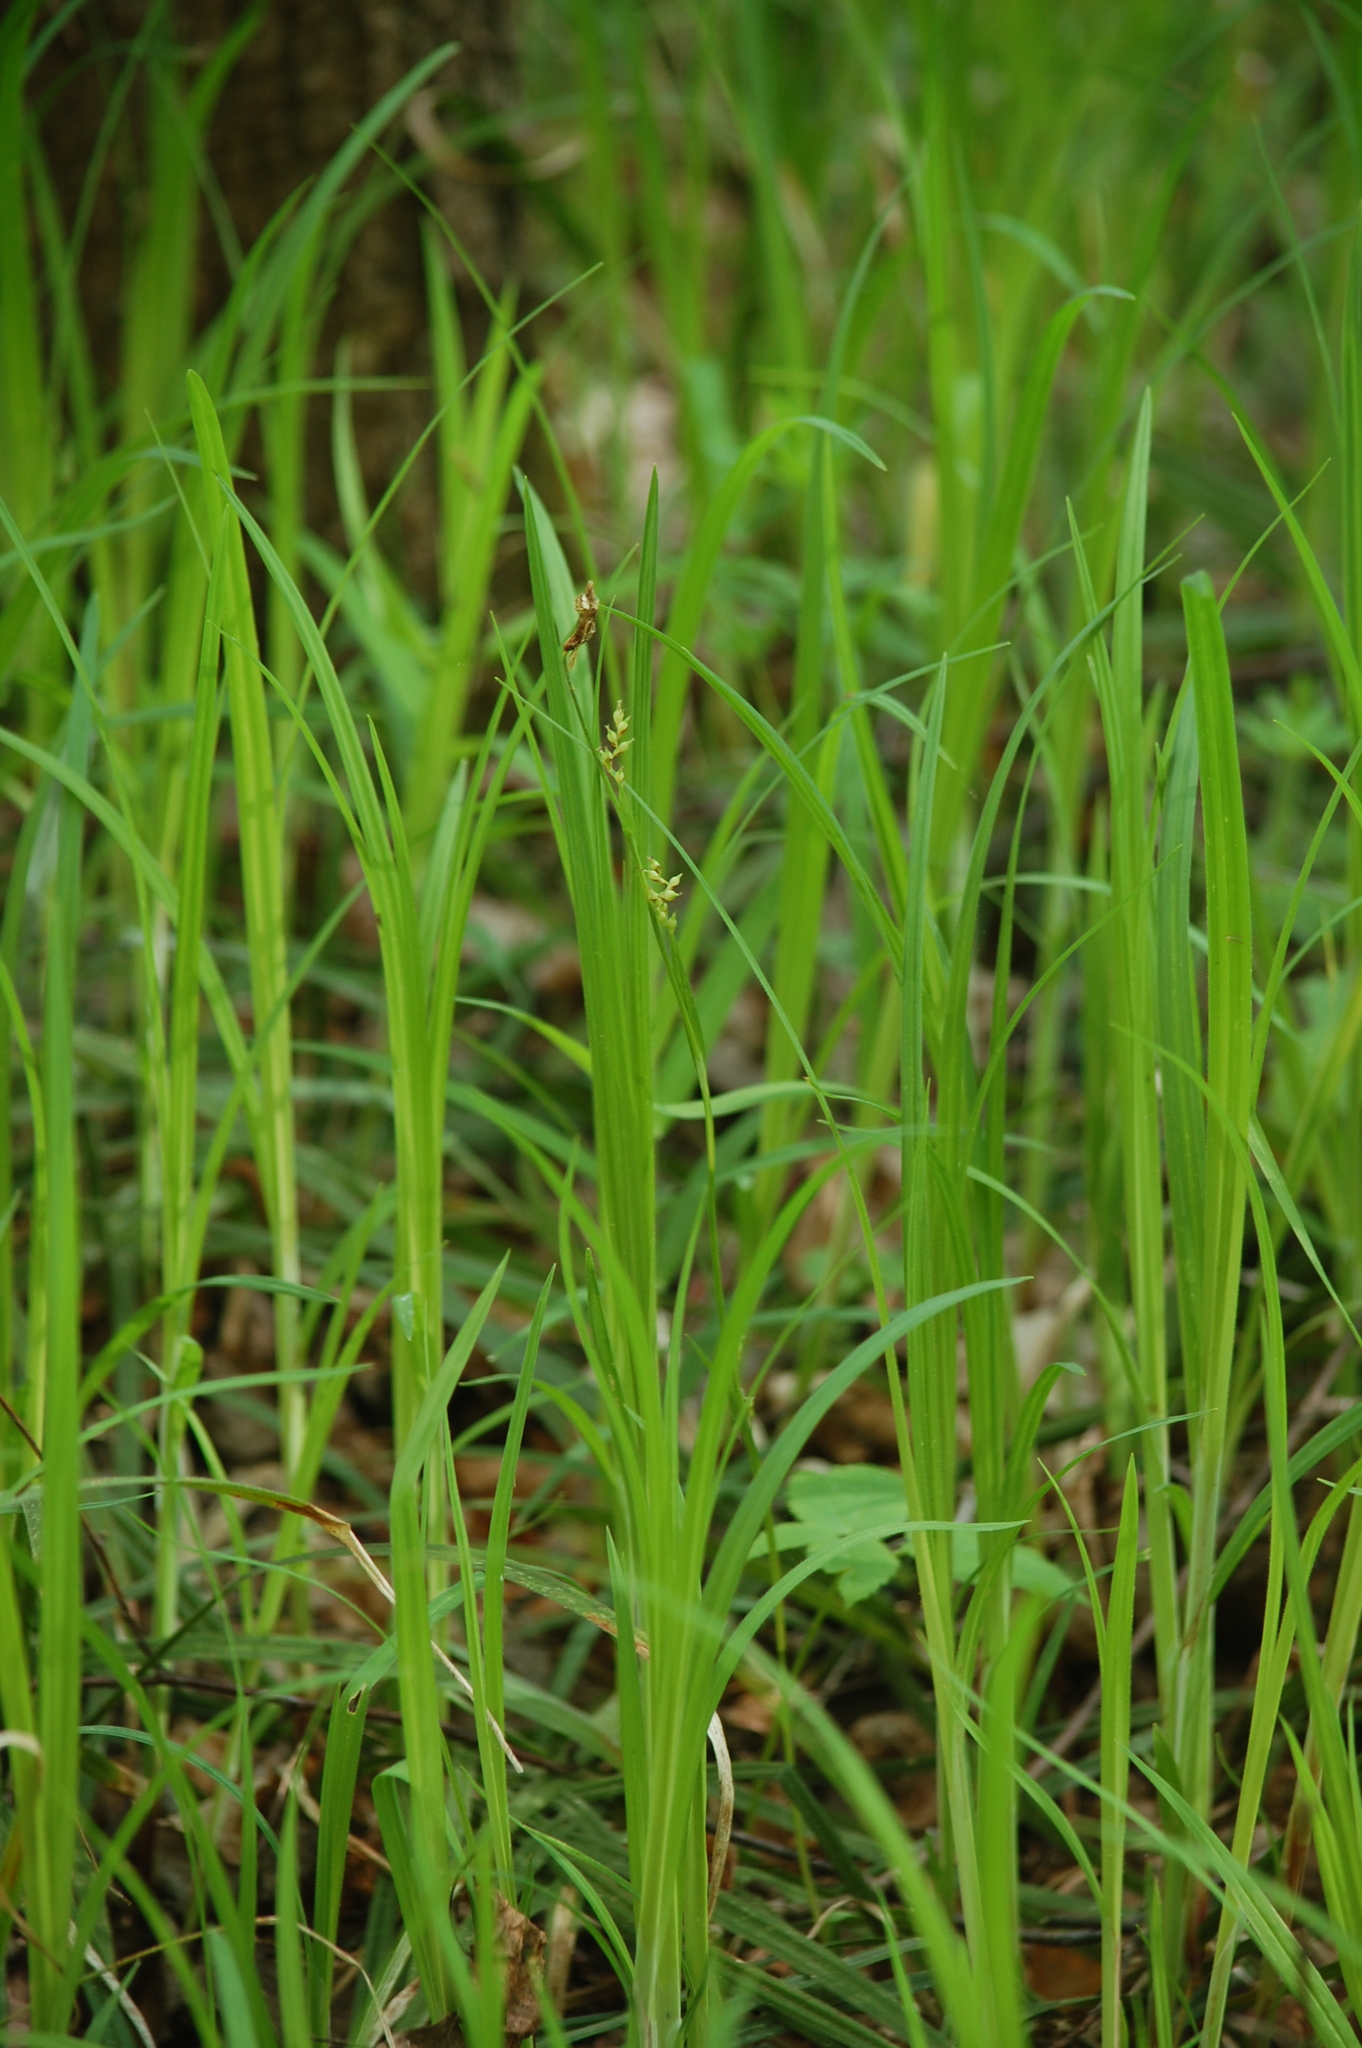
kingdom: Plantae
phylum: Tracheophyta
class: Liliopsida
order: Poales
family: Cyperaceae
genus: Carex
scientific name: Carex pilosa
